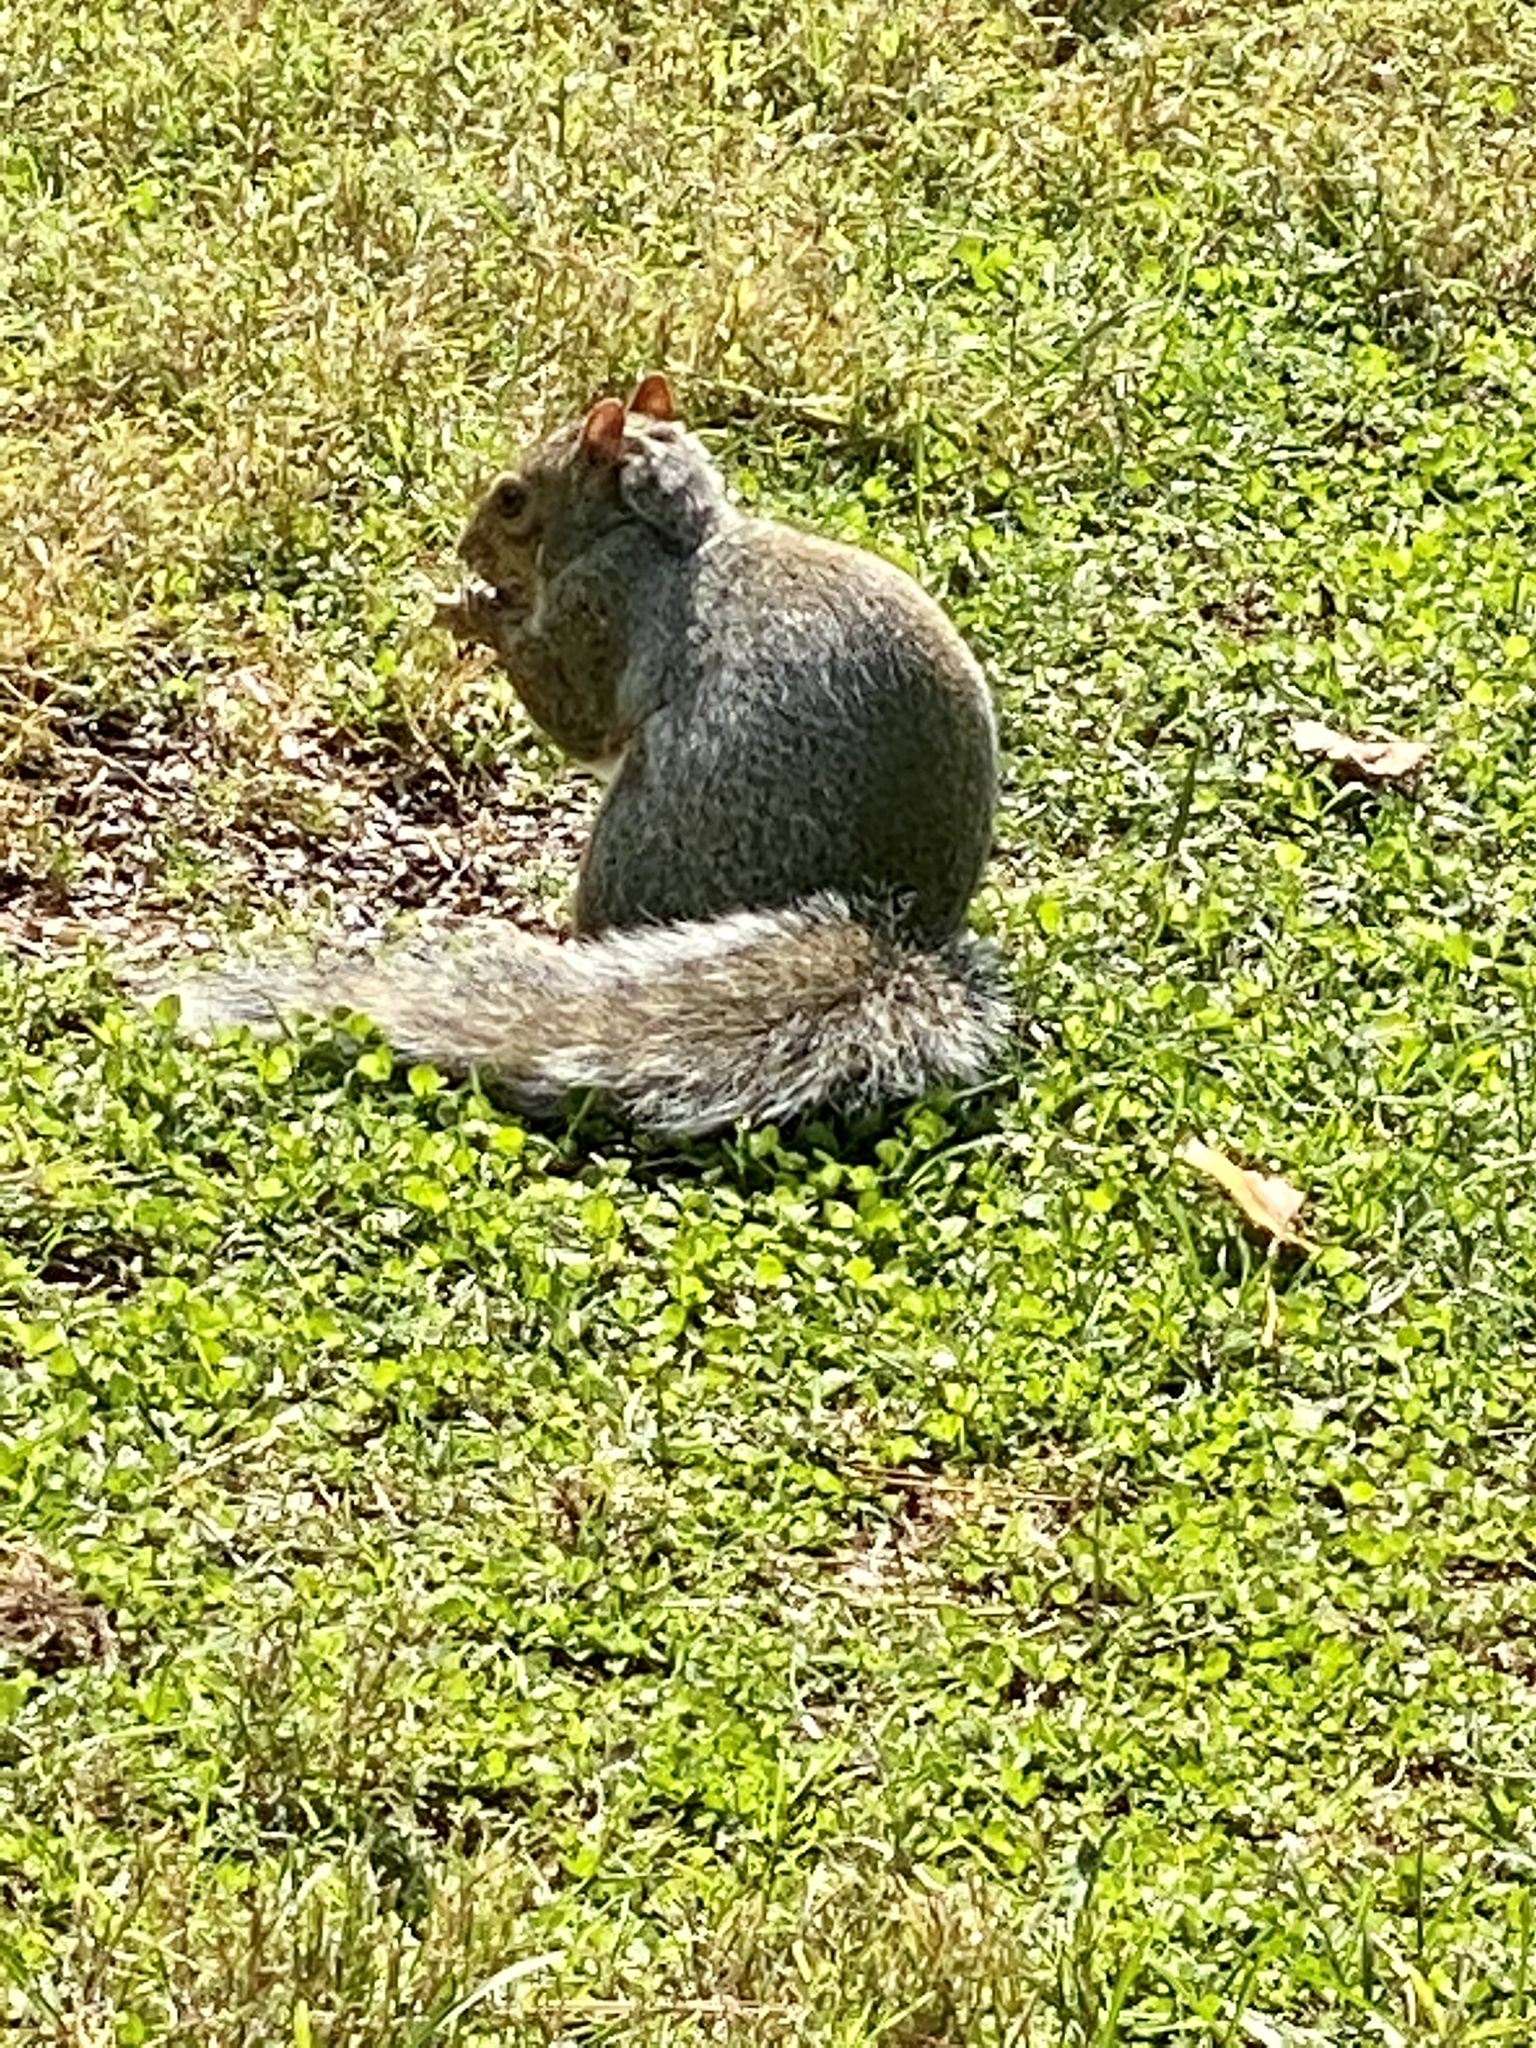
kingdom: Animalia
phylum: Chordata
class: Mammalia
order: Rodentia
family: Sciuridae
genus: Sciurus
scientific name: Sciurus carolinensis
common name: Eastern gray squirrel
